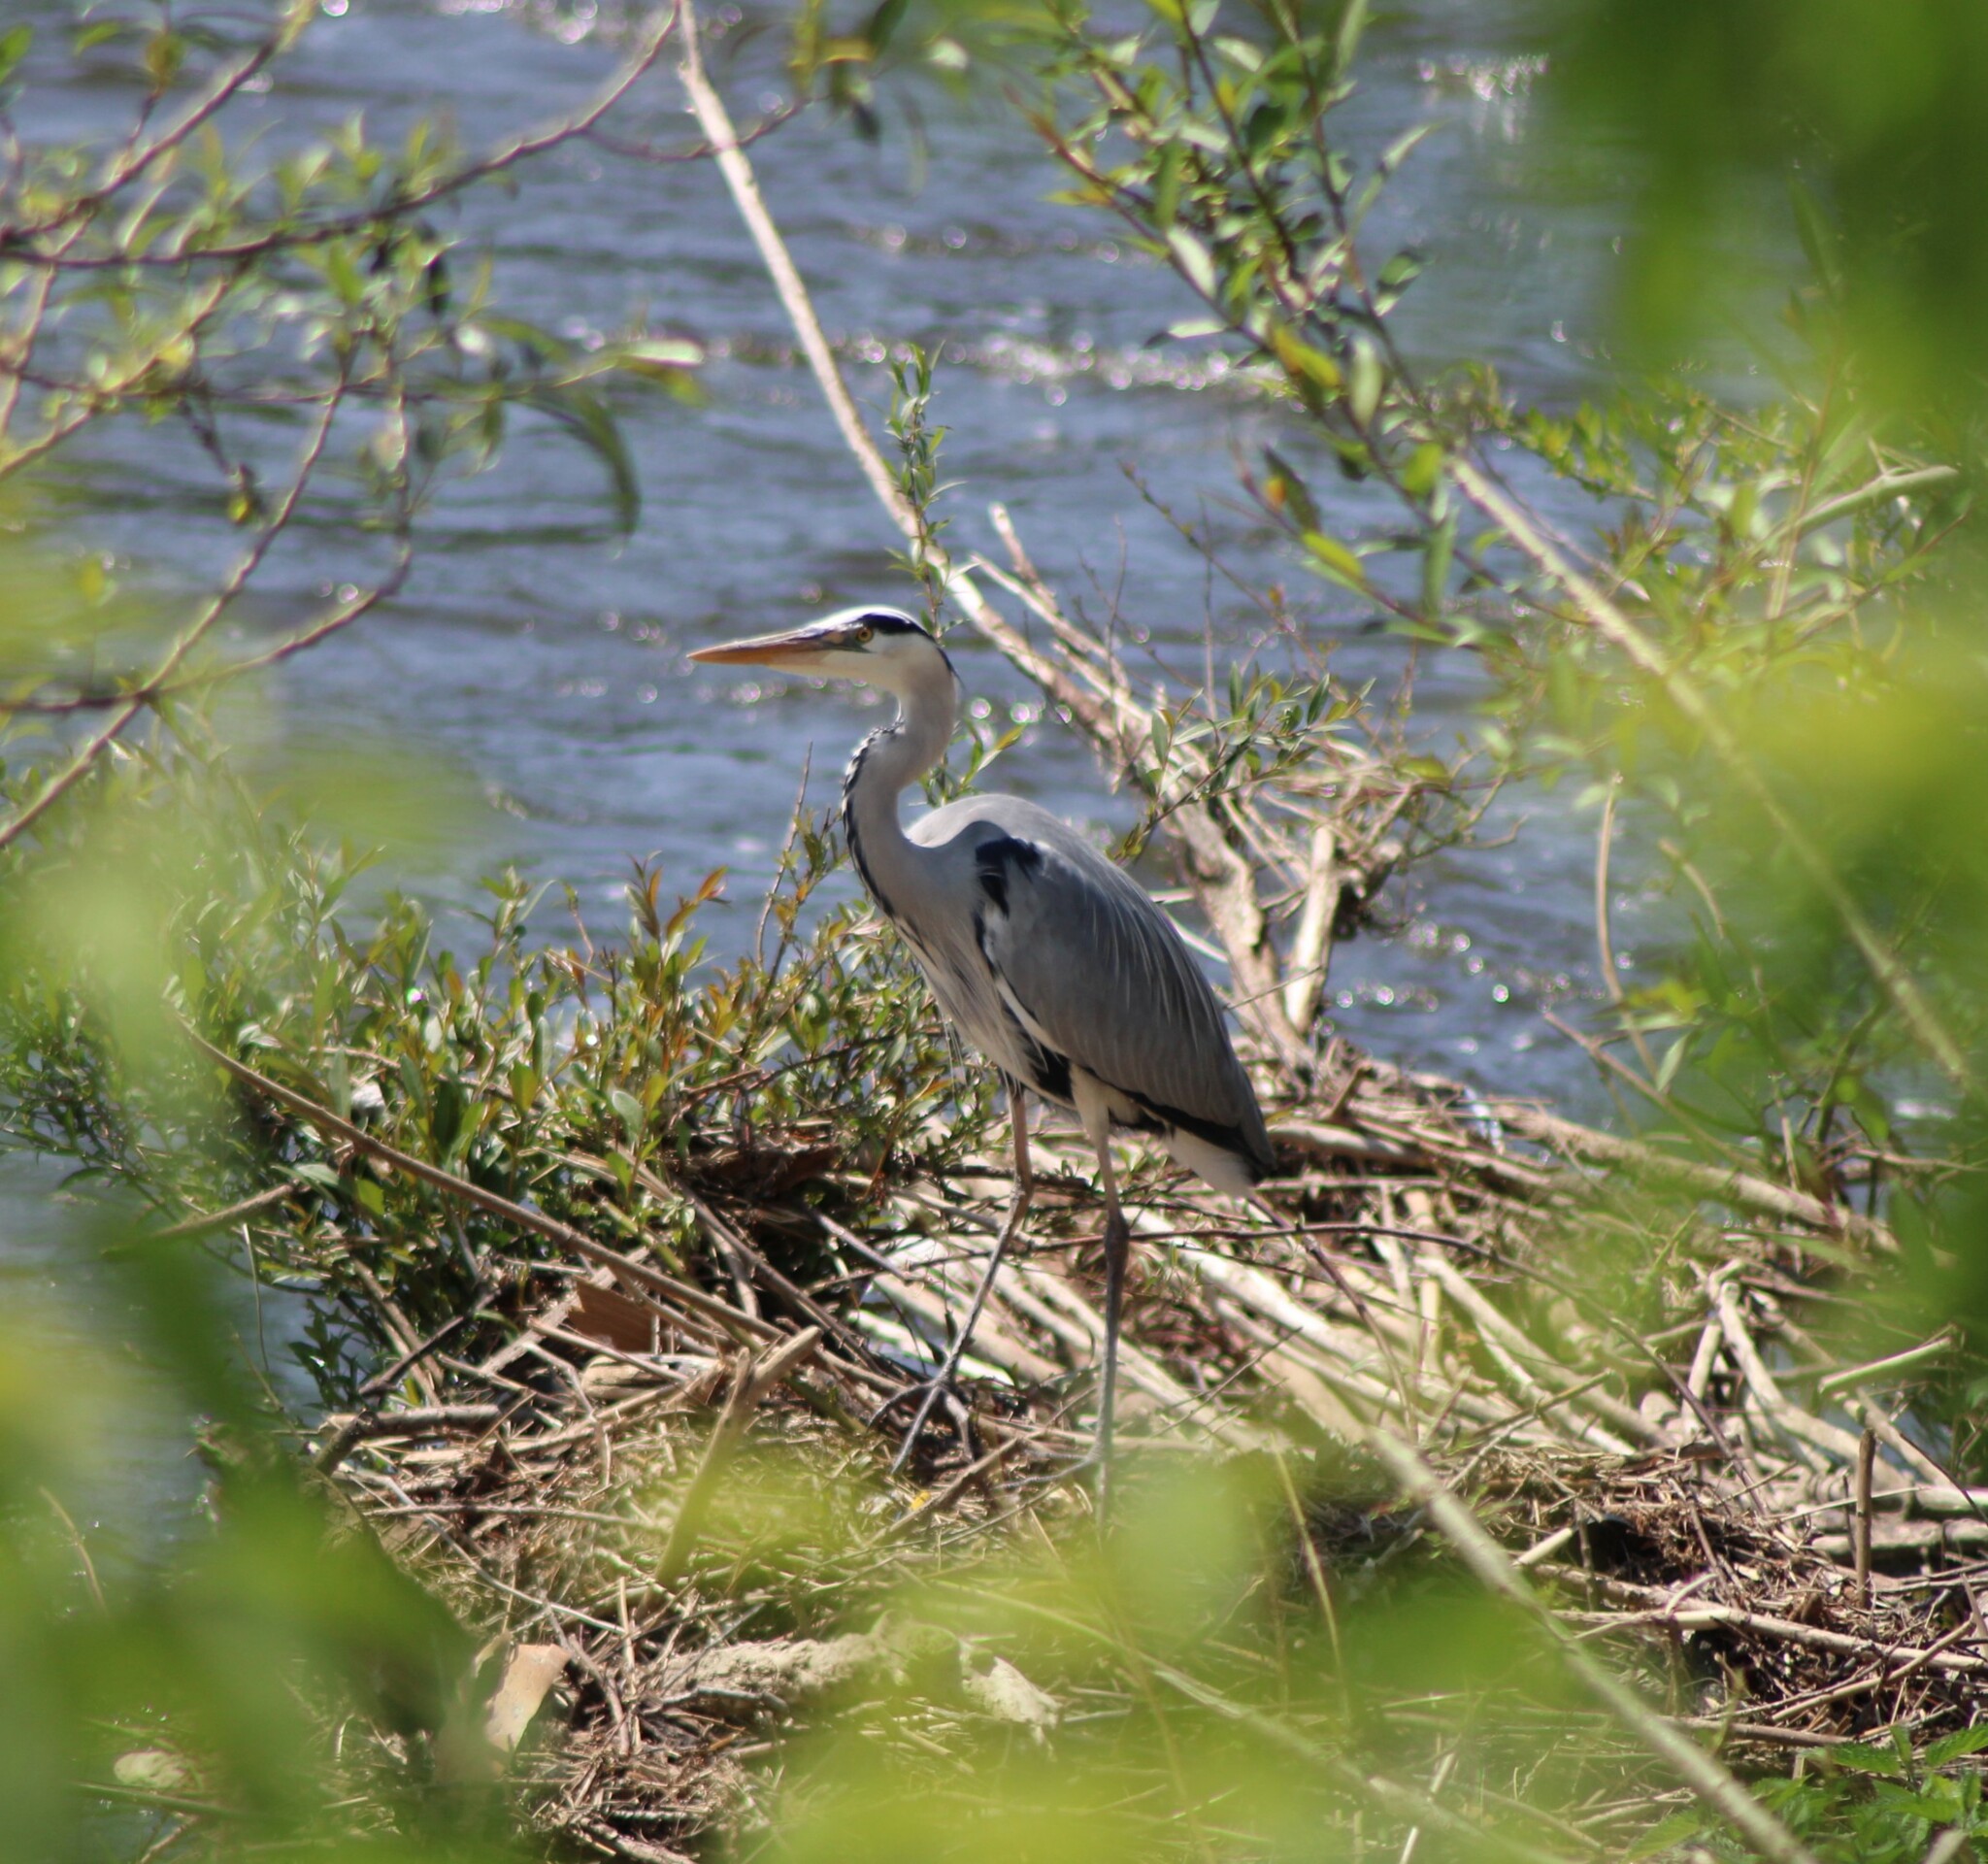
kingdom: Animalia
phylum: Chordata
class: Aves
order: Pelecaniformes
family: Ardeidae
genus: Ardea
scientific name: Ardea cinerea
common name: Grey heron
